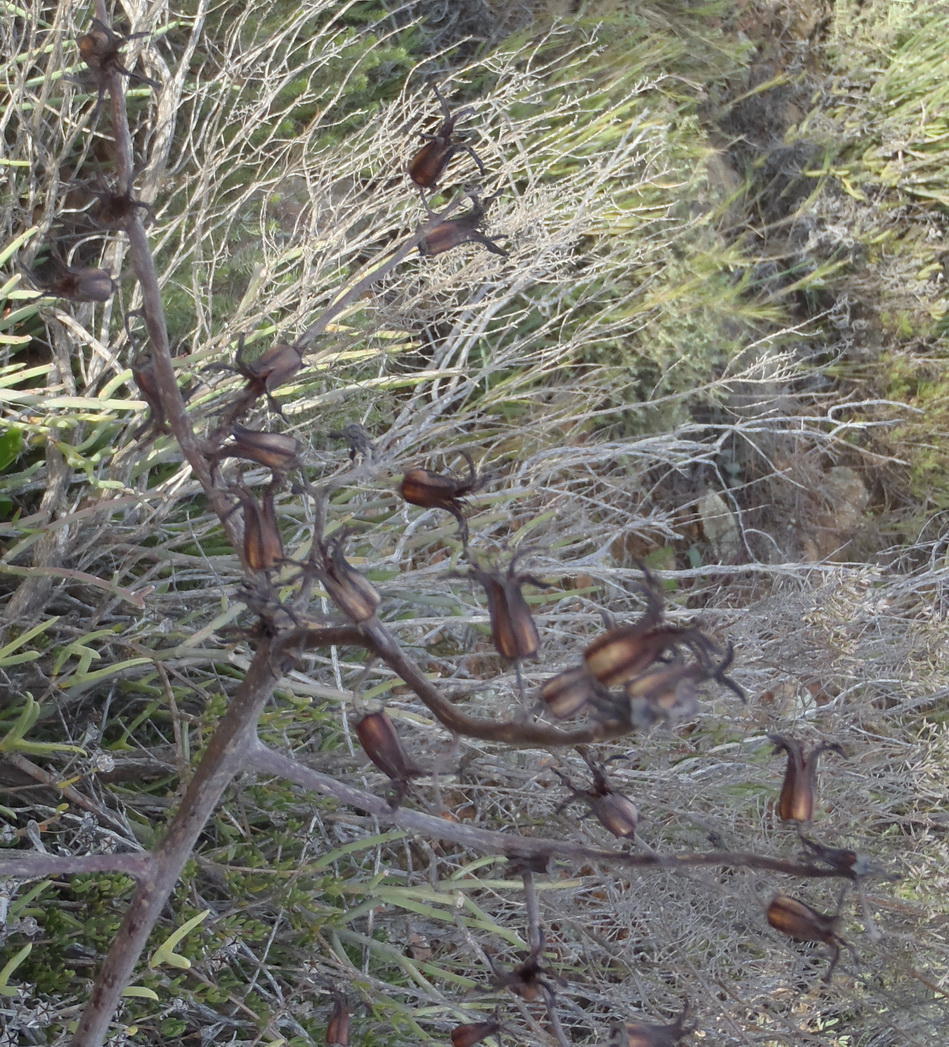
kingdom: Plantae
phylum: Tracheophyta
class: Magnoliopsida
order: Saxifragales
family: Crassulaceae
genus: Tylecodon
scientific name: Tylecodon paniculatus
